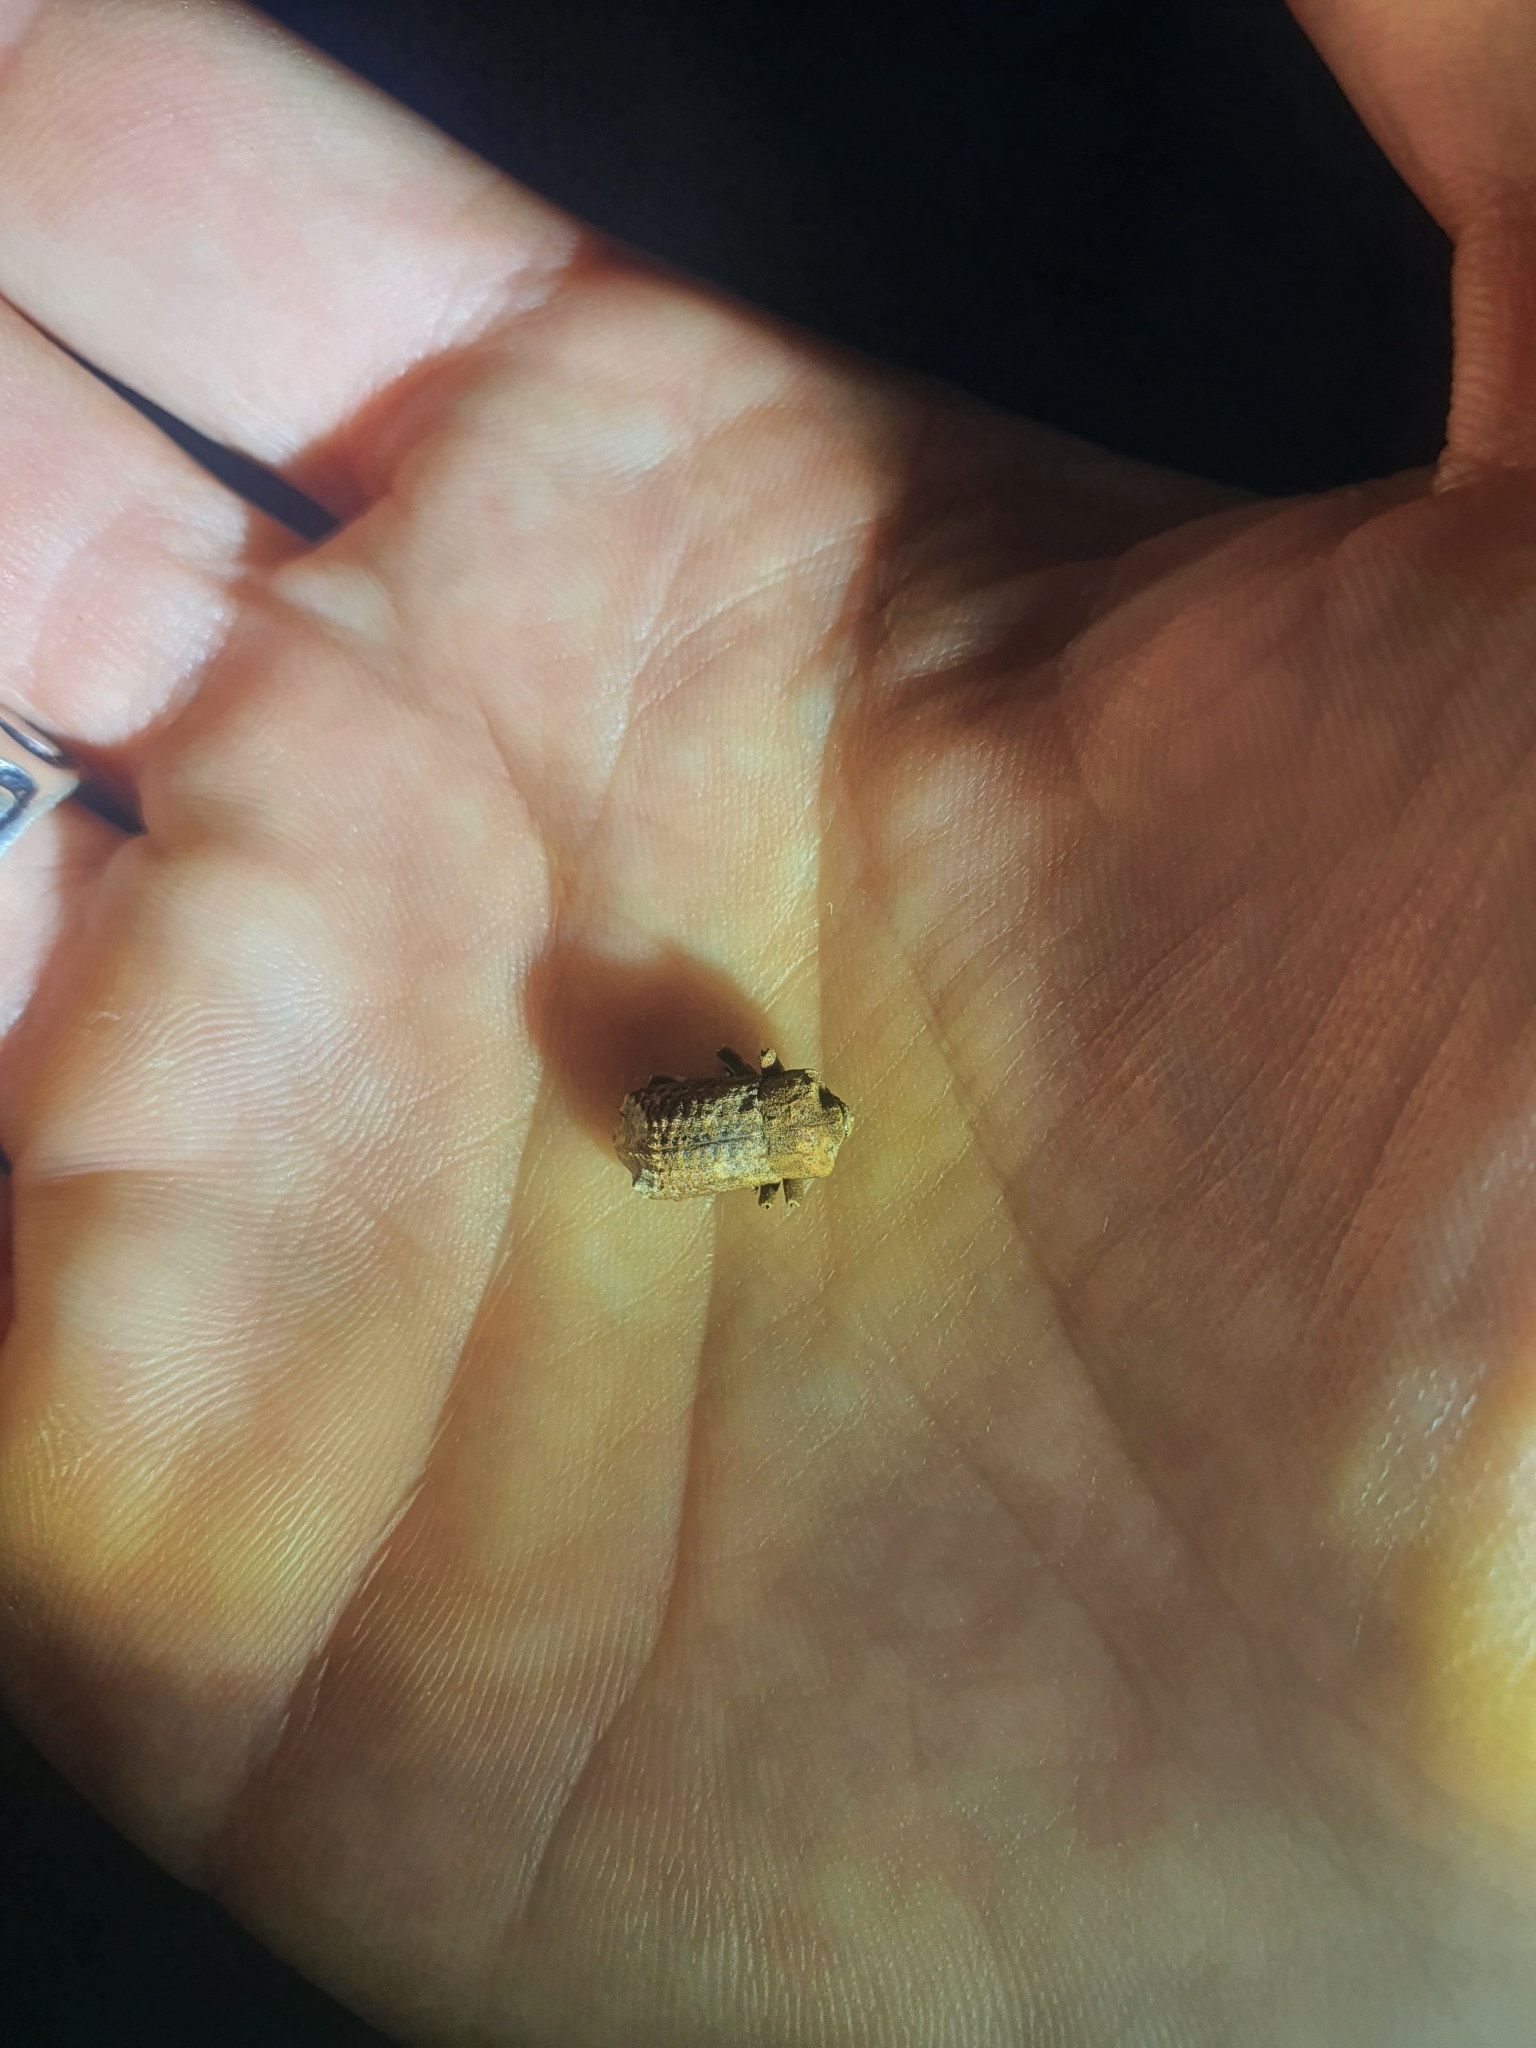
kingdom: Animalia
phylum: Arthropoda
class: Insecta
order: Coleoptera
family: Curculionidae
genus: Ectopsis
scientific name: Ectopsis ferrugalis
